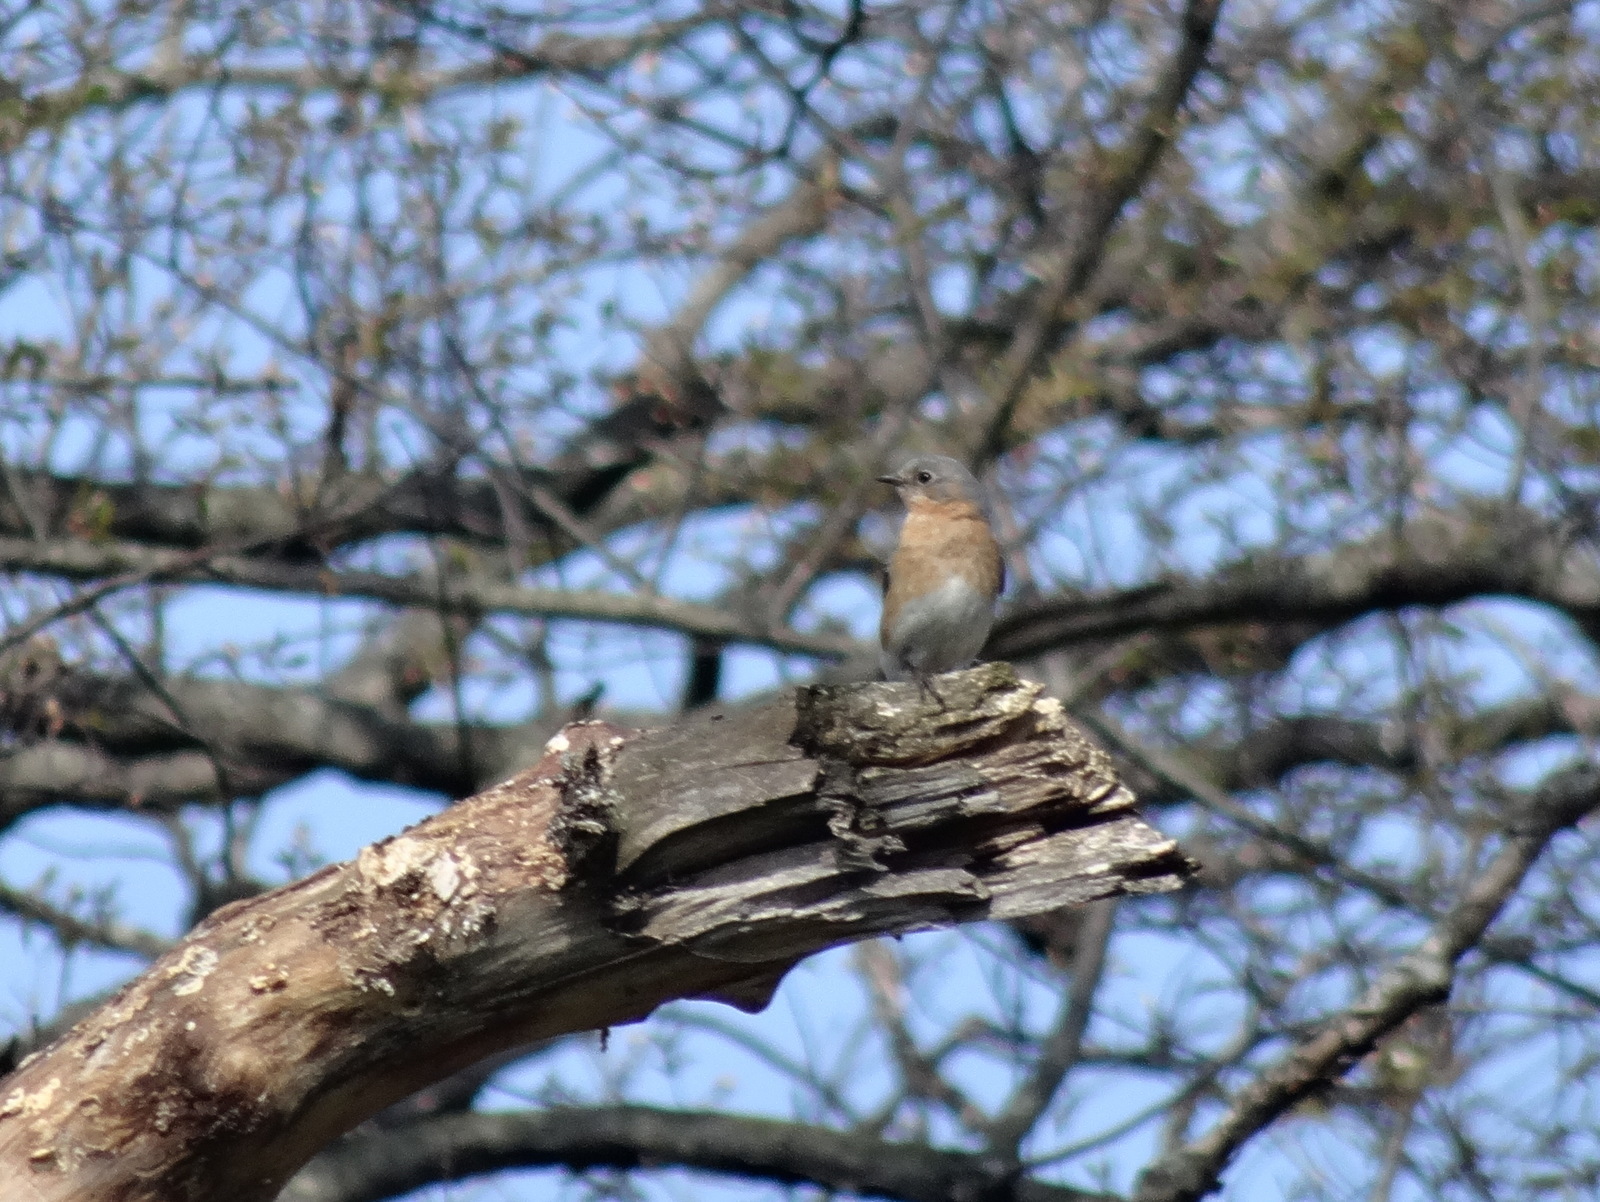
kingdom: Animalia
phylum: Chordata
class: Aves
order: Passeriformes
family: Turdidae
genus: Sialia
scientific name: Sialia sialis
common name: Eastern bluebird
